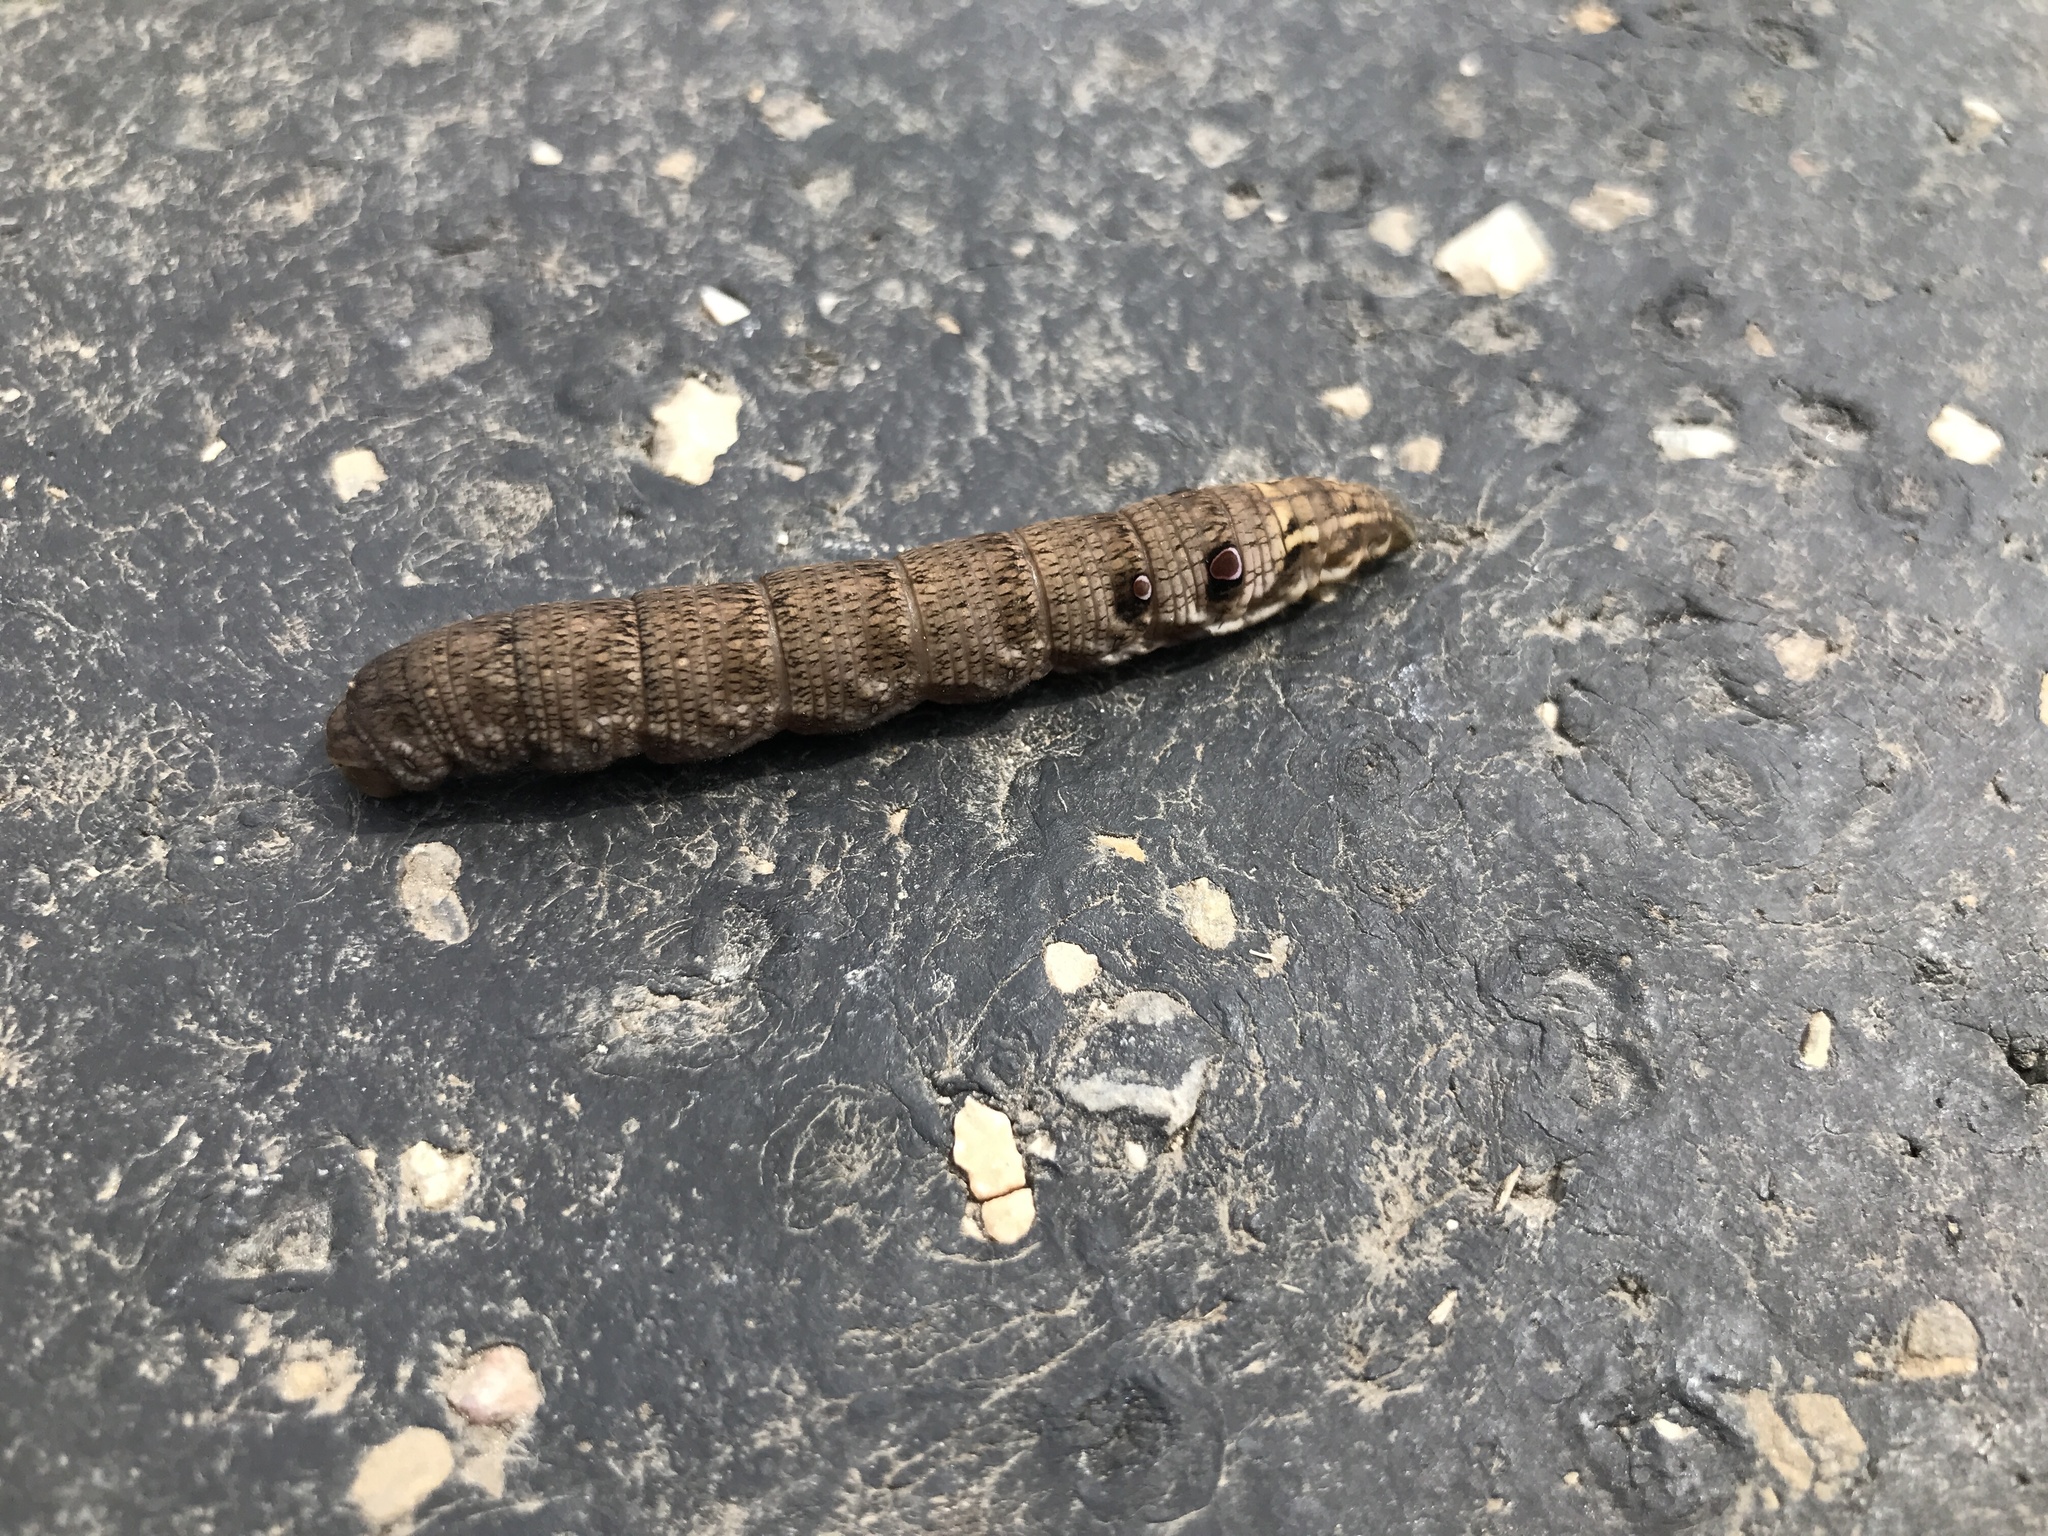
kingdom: Animalia
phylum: Arthropoda
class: Insecta
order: Lepidoptera
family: Sphingidae
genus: Deilephila
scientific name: Deilephila porcellus
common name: Small elephant hawk-moth
